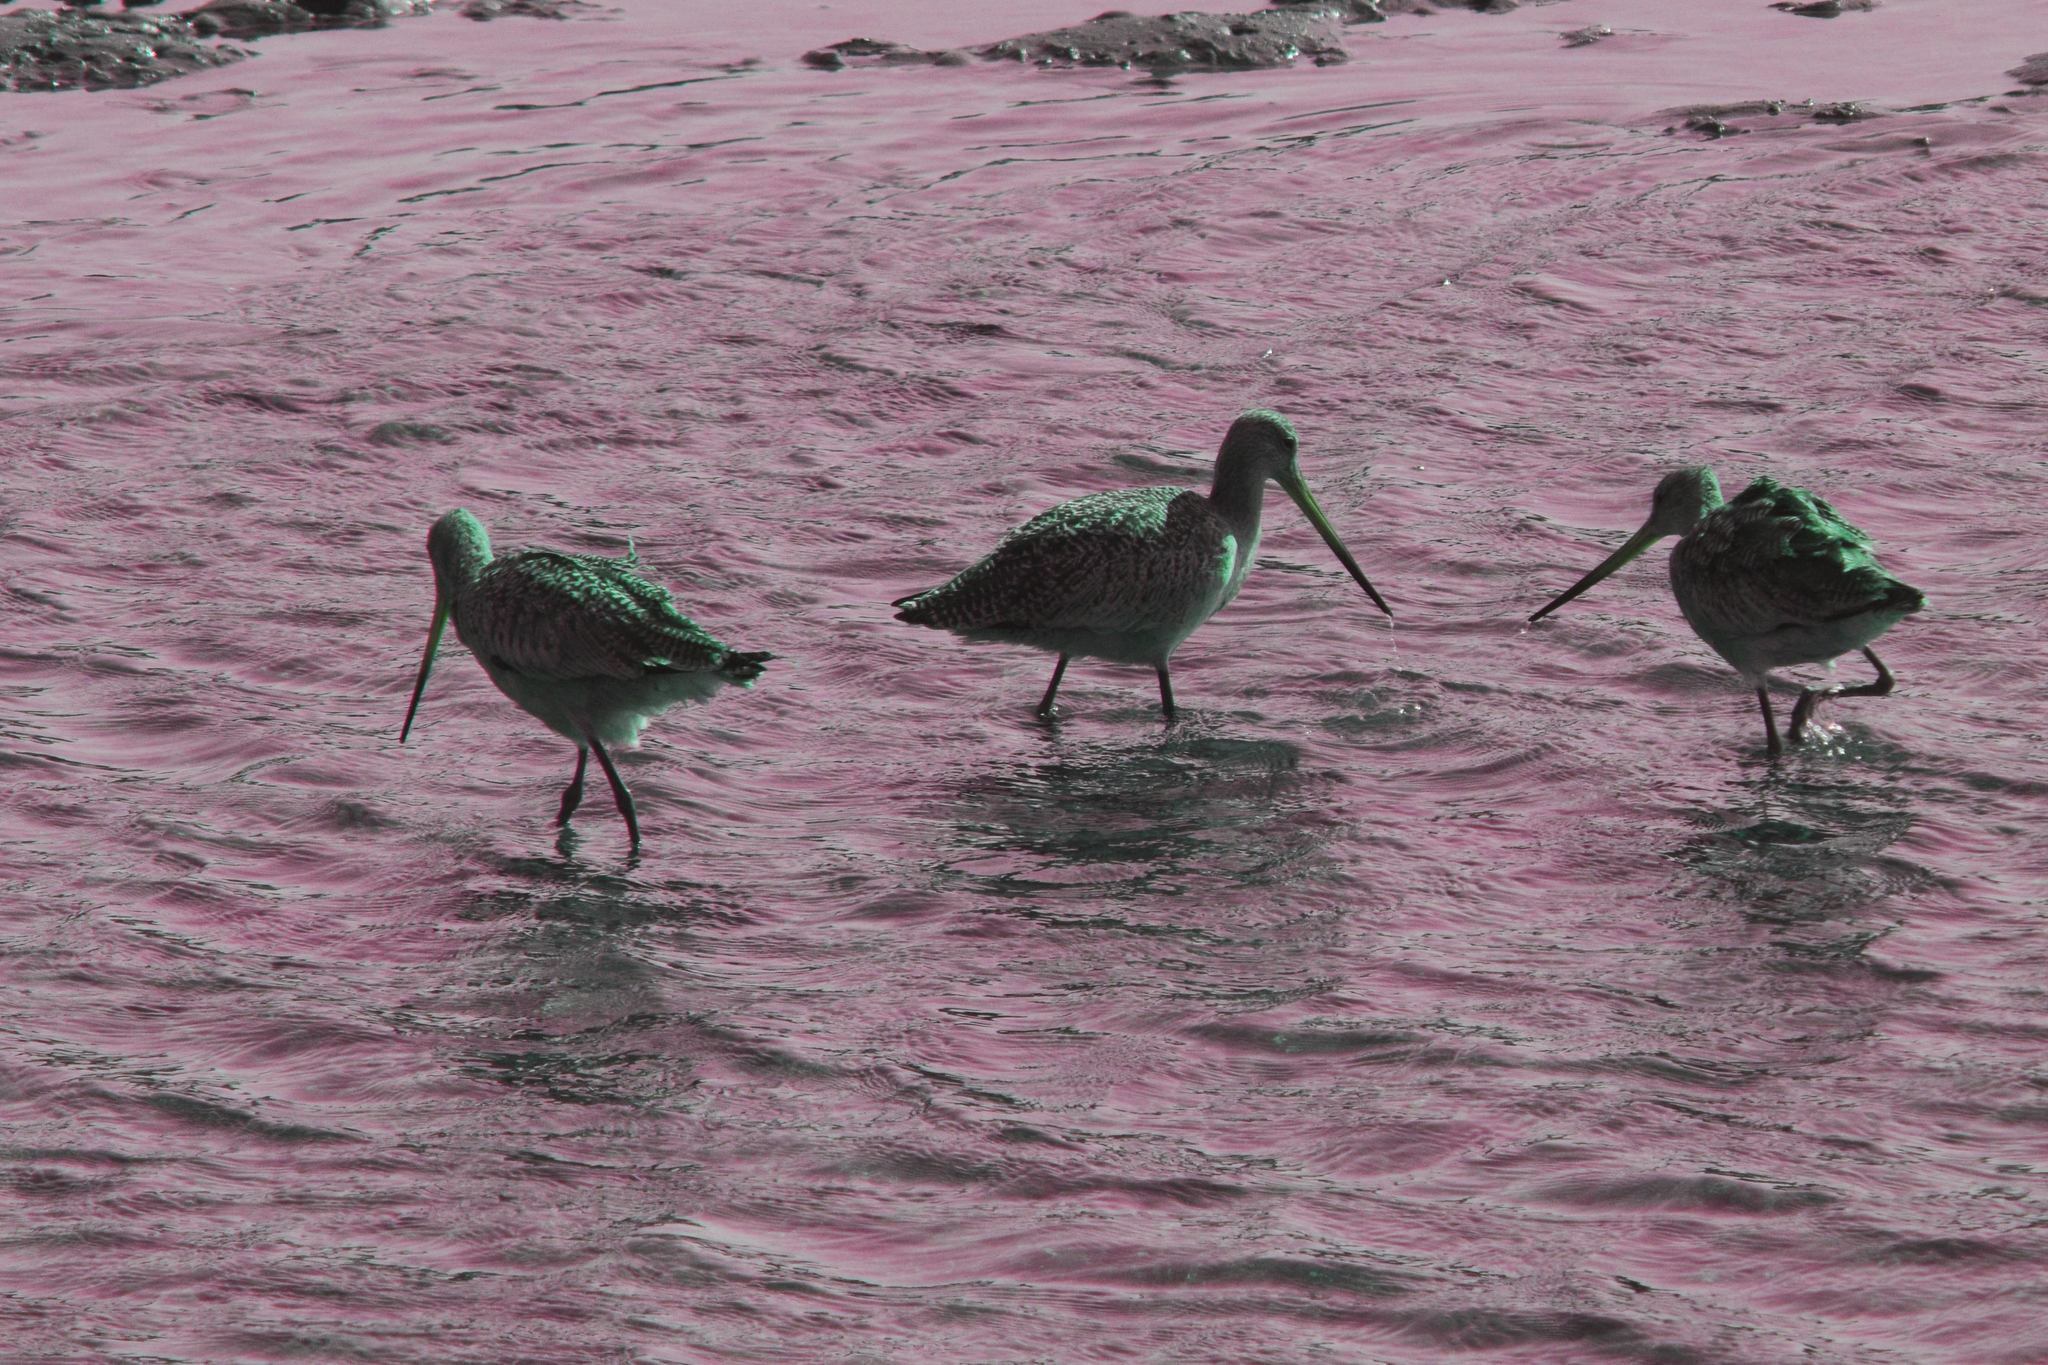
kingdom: Animalia
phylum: Chordata
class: Aves
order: Charadriiformes
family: Scolopacidae
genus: Limosa
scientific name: Limosa fedoa
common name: Marbled godwit
